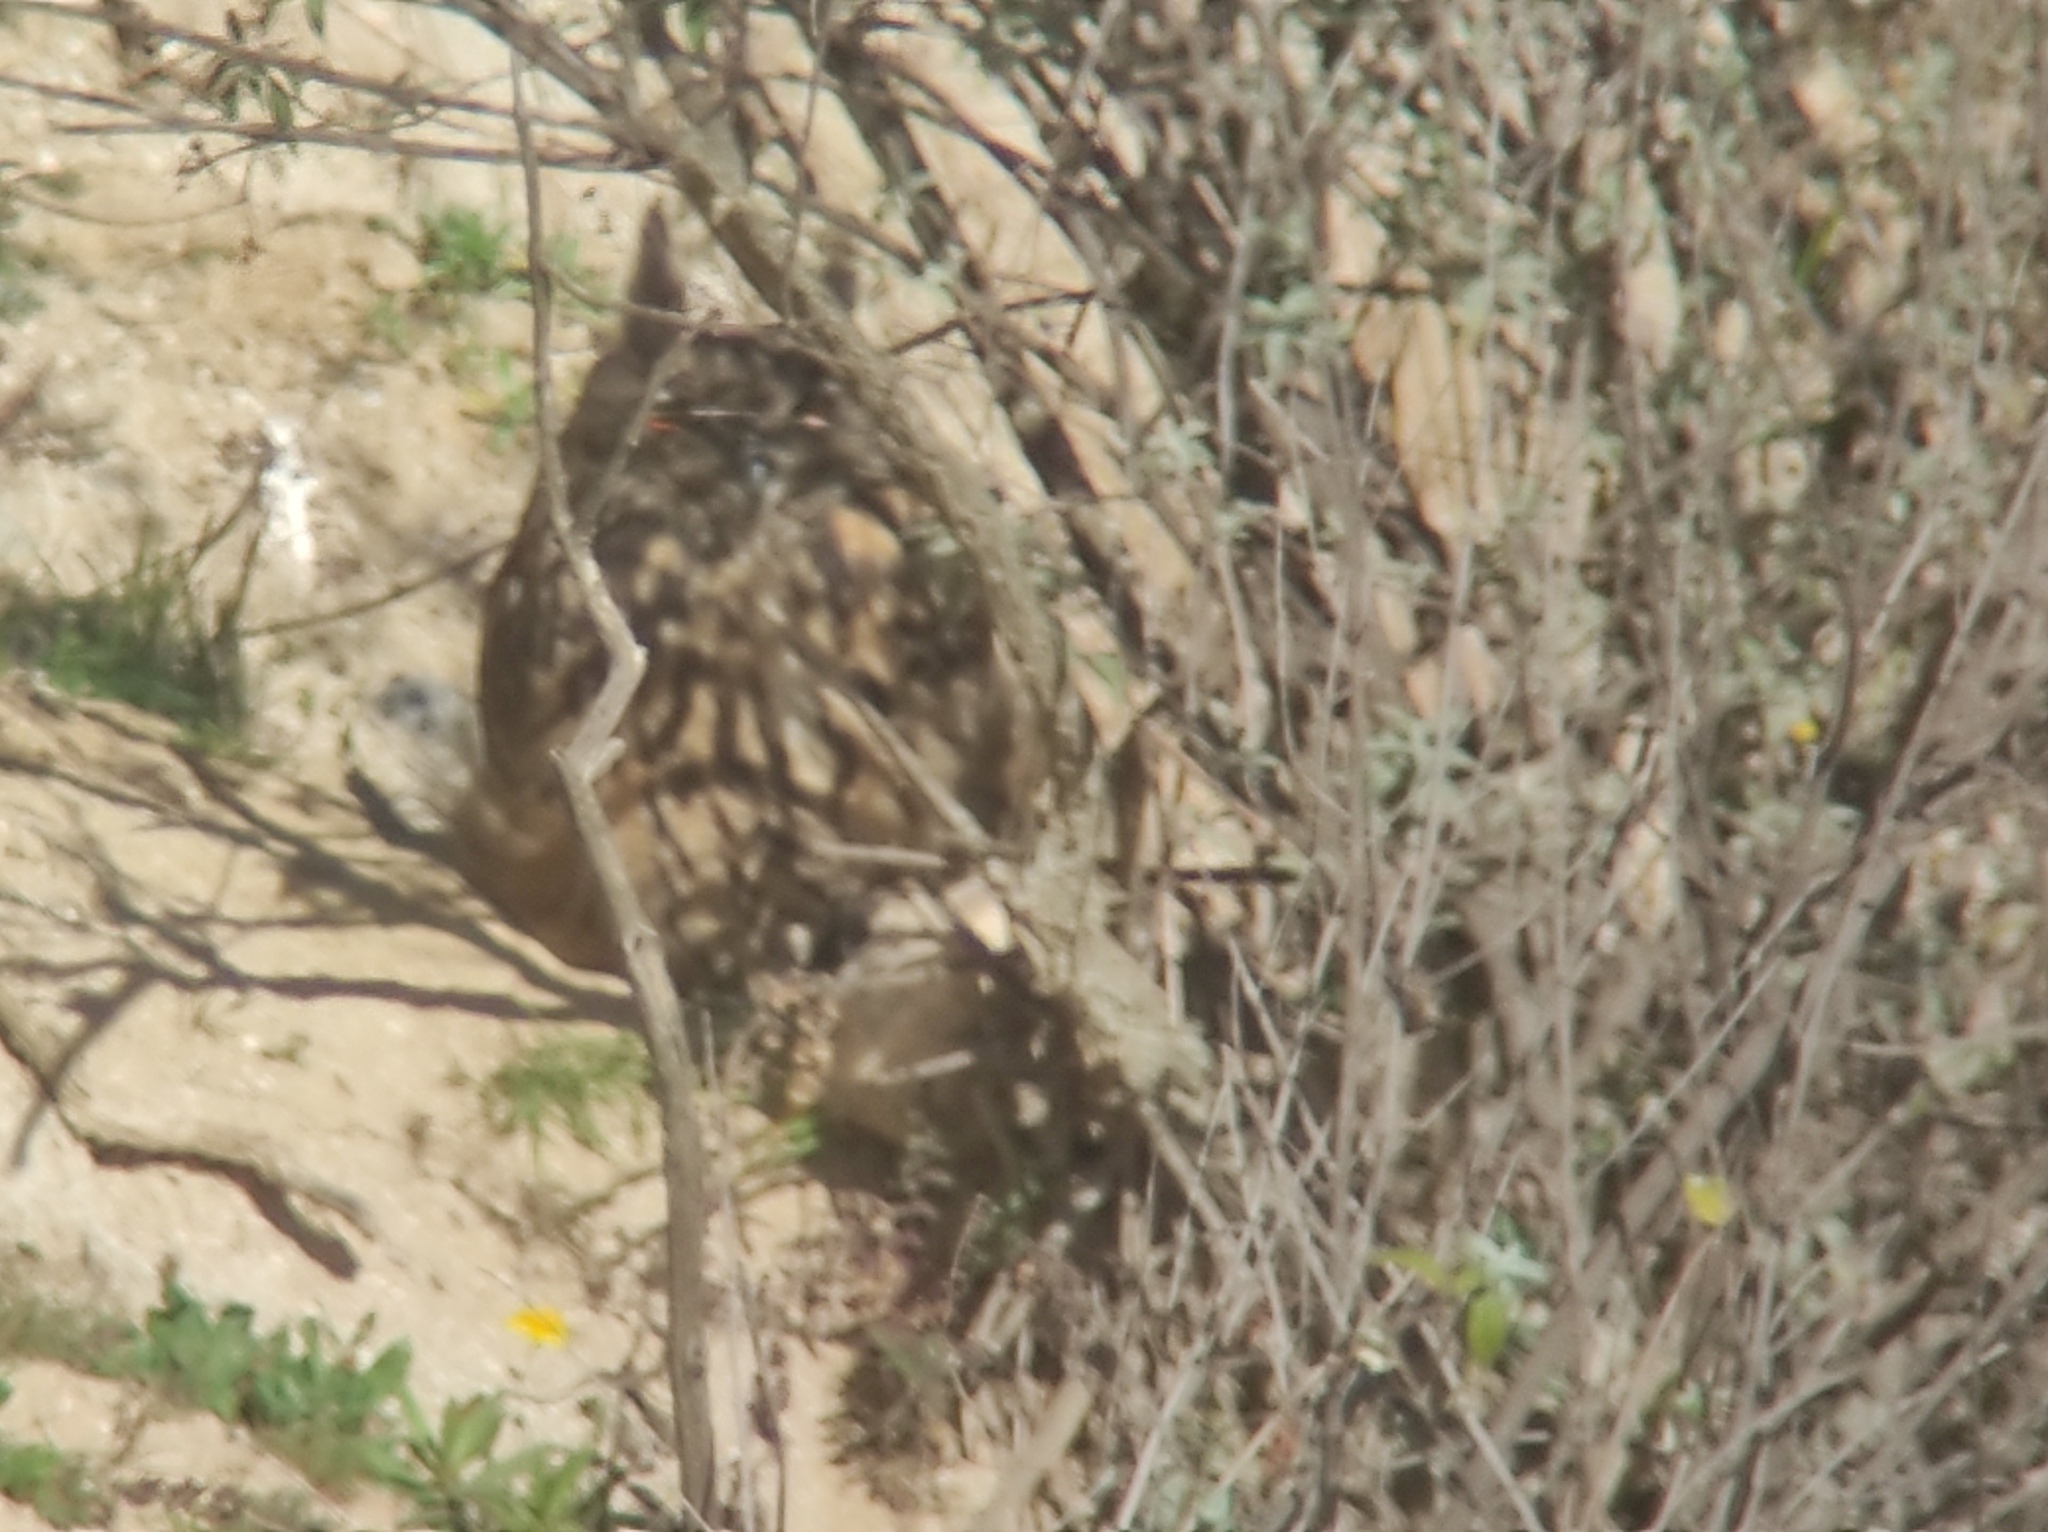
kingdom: Animalia
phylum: Chordata
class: Aves
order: Strigiformes
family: Strigidae
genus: Bubo
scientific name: Bubo bubo
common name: Eurasian eagle-owl
